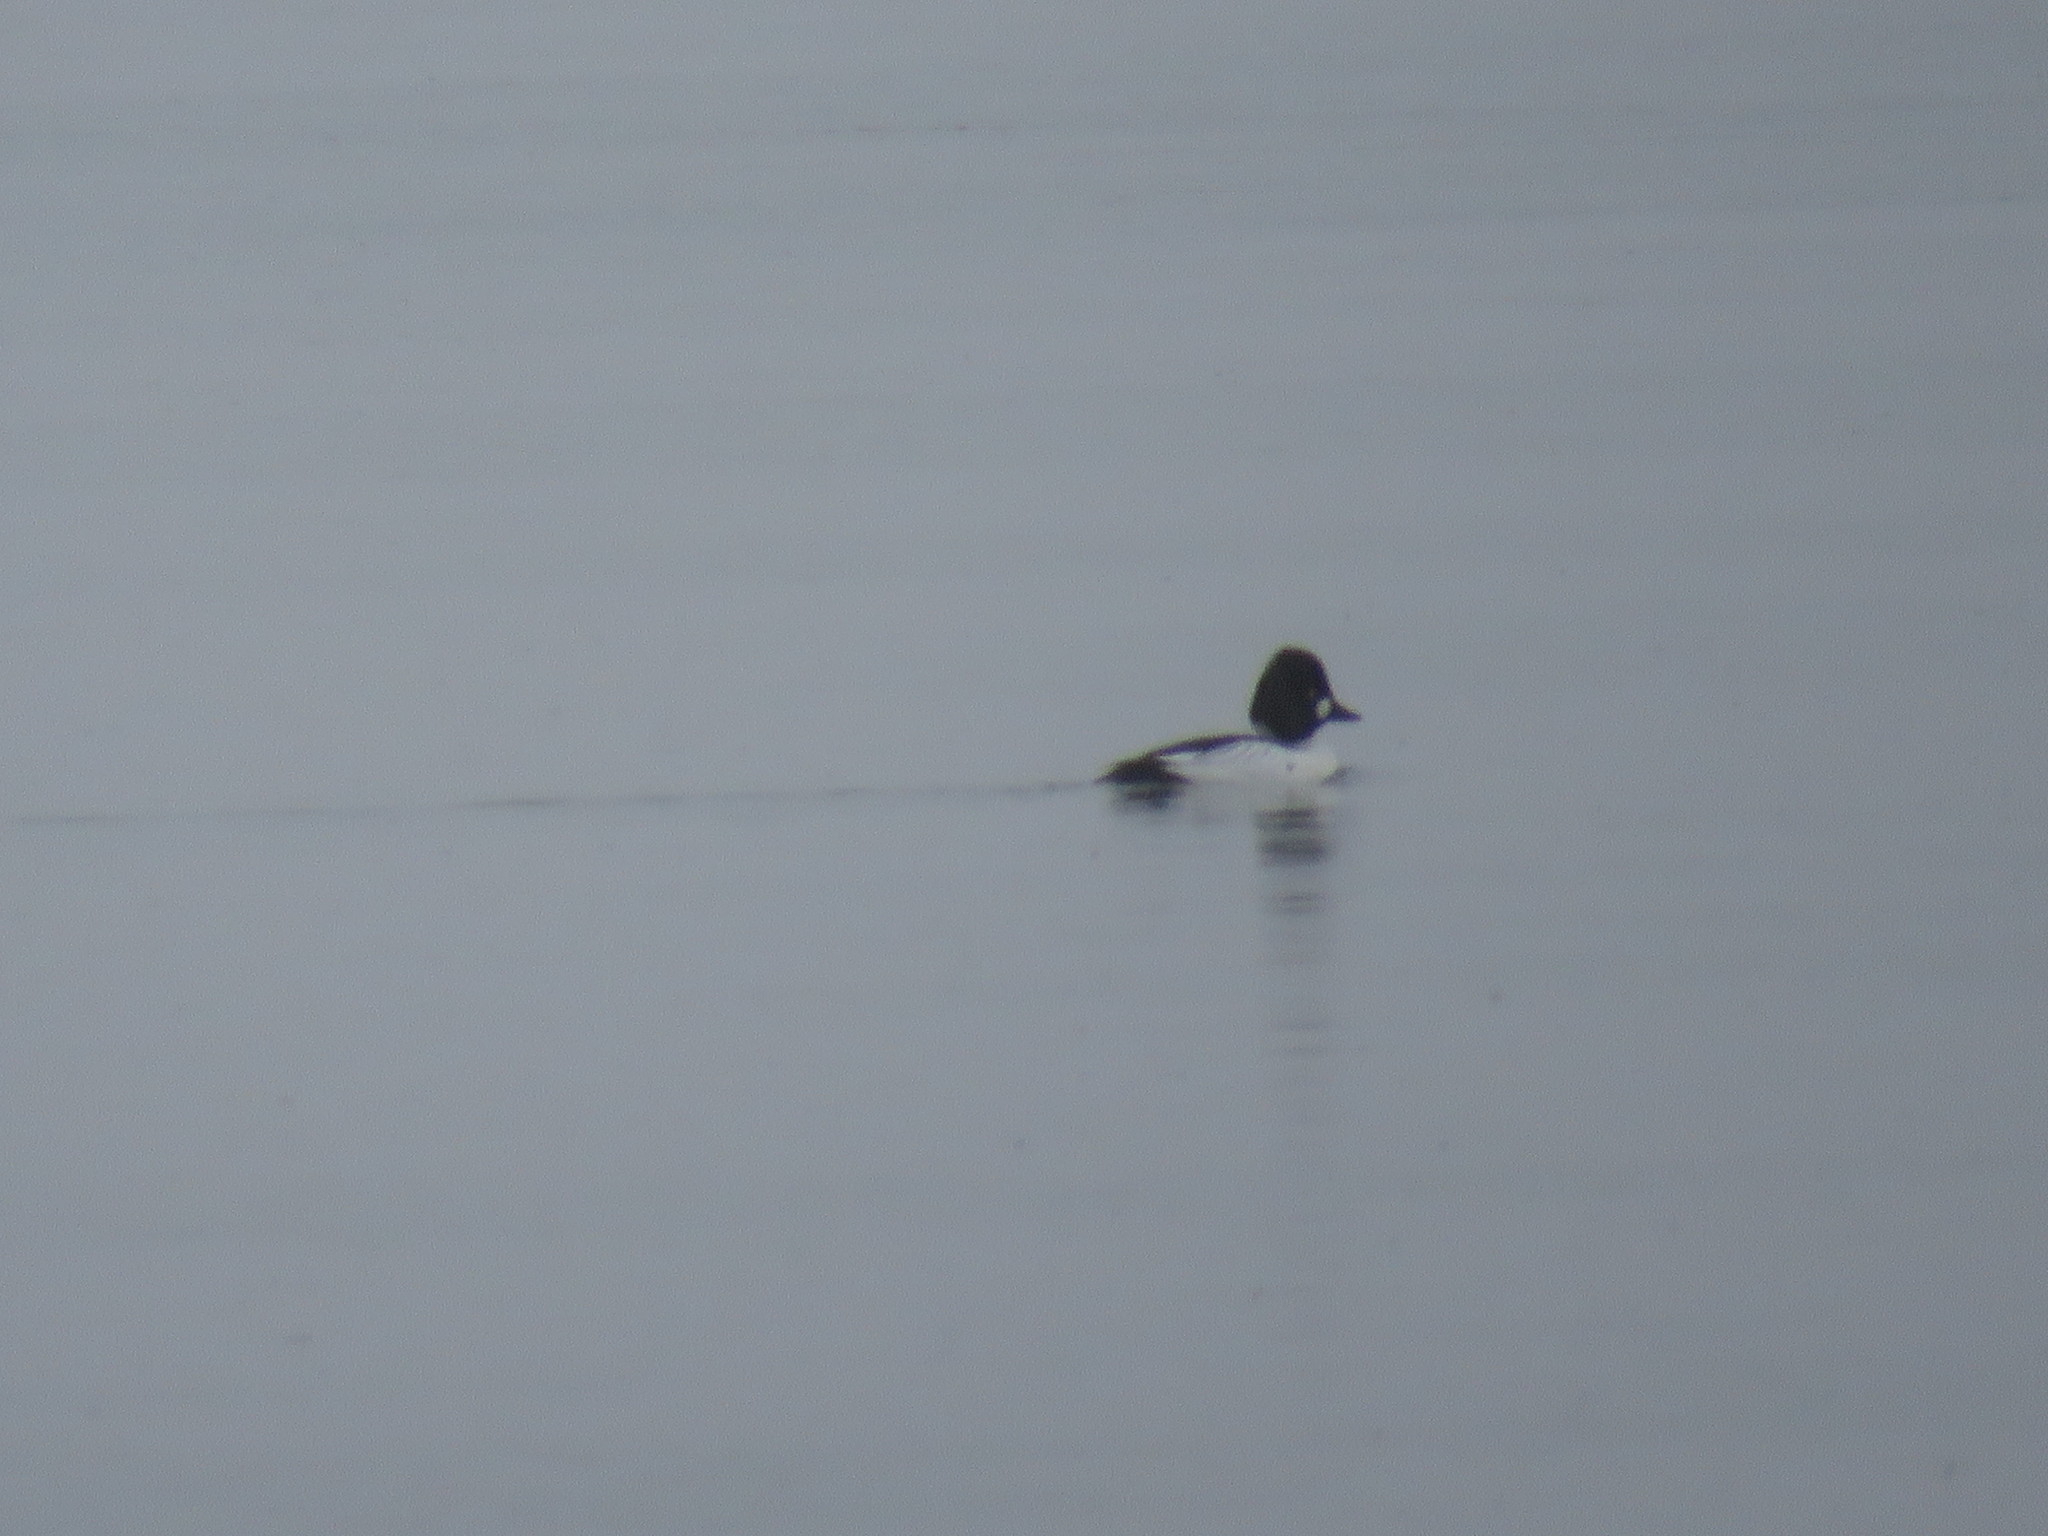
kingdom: Animalia
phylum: Chordata
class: Aves
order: Anseriformes
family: Anatidae
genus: Bucephala
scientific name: Bucephala clangula
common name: Common goldeneye
